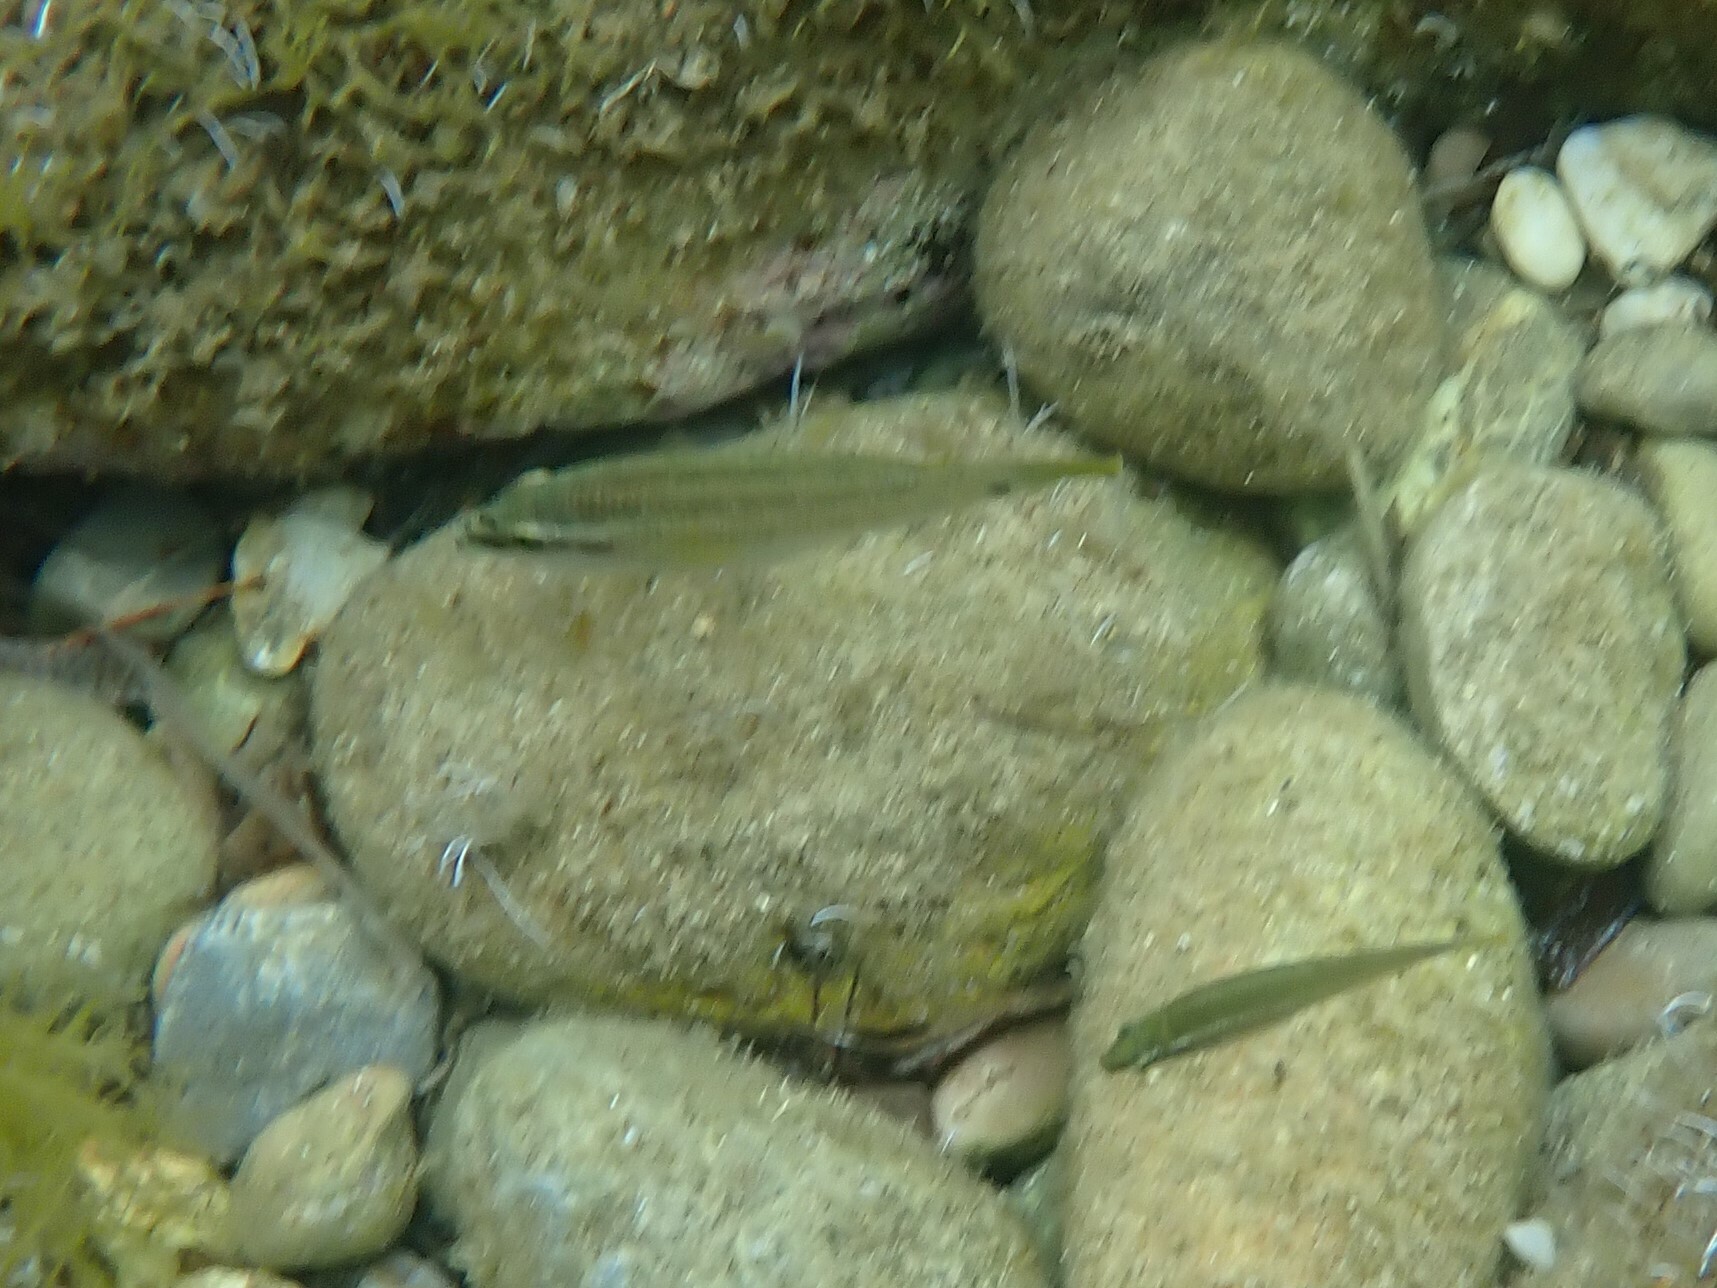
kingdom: Animalia
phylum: Chordata
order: Perciformes
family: Labridae
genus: Symphodus
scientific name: Symphodus tinca
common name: Peacock wrasse
